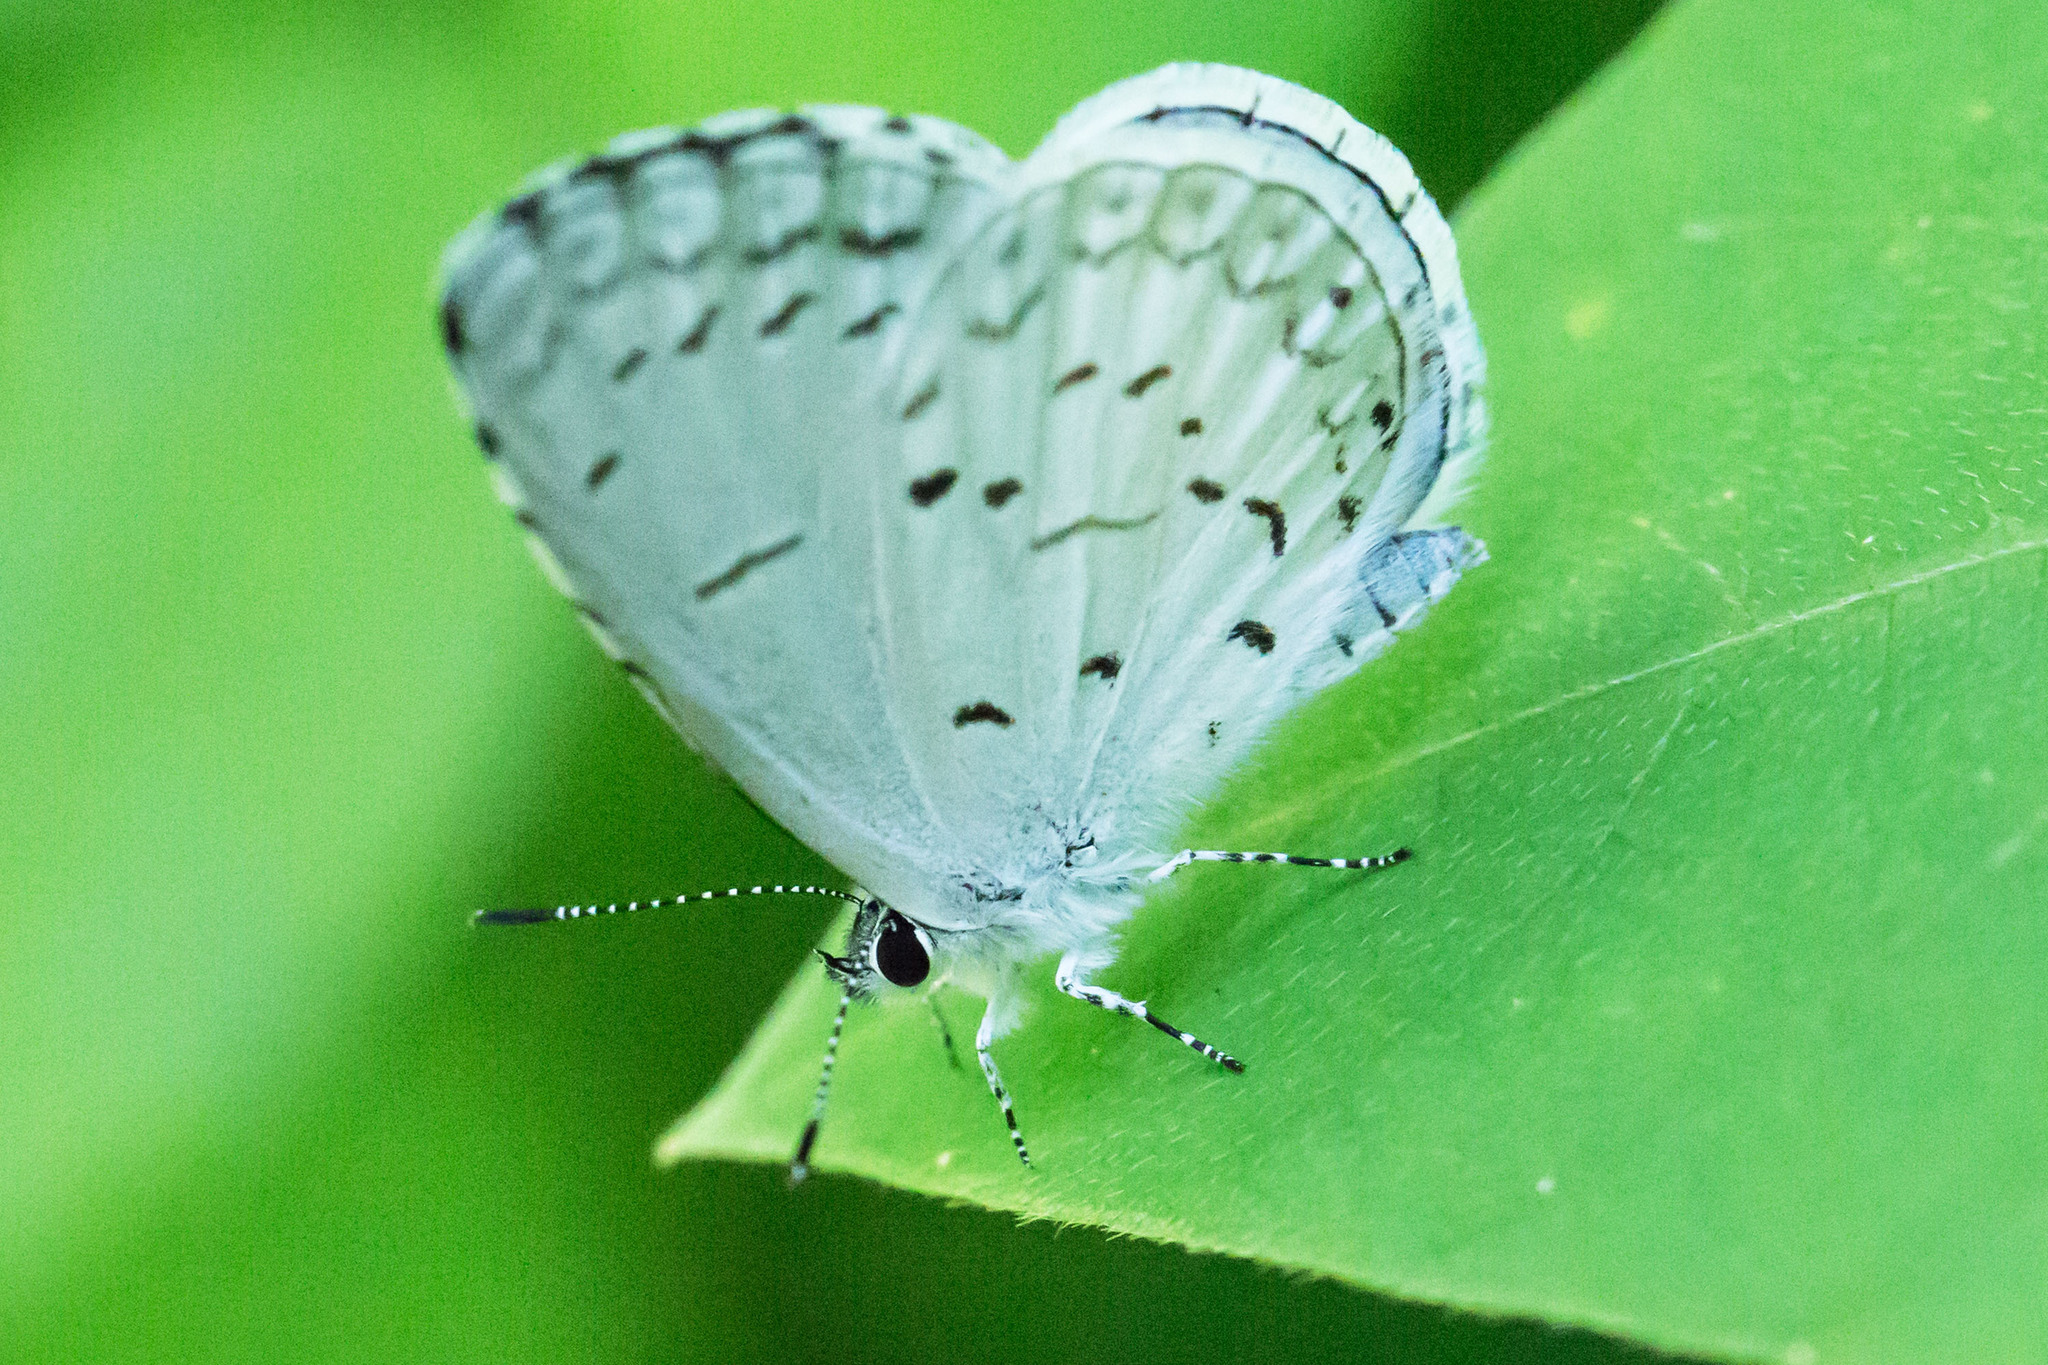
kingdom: Animalia
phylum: Arthropoda
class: Insecta
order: Lepidoptera
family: Lycaenidae
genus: Cyaniris
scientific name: Cyaniris neglecta
